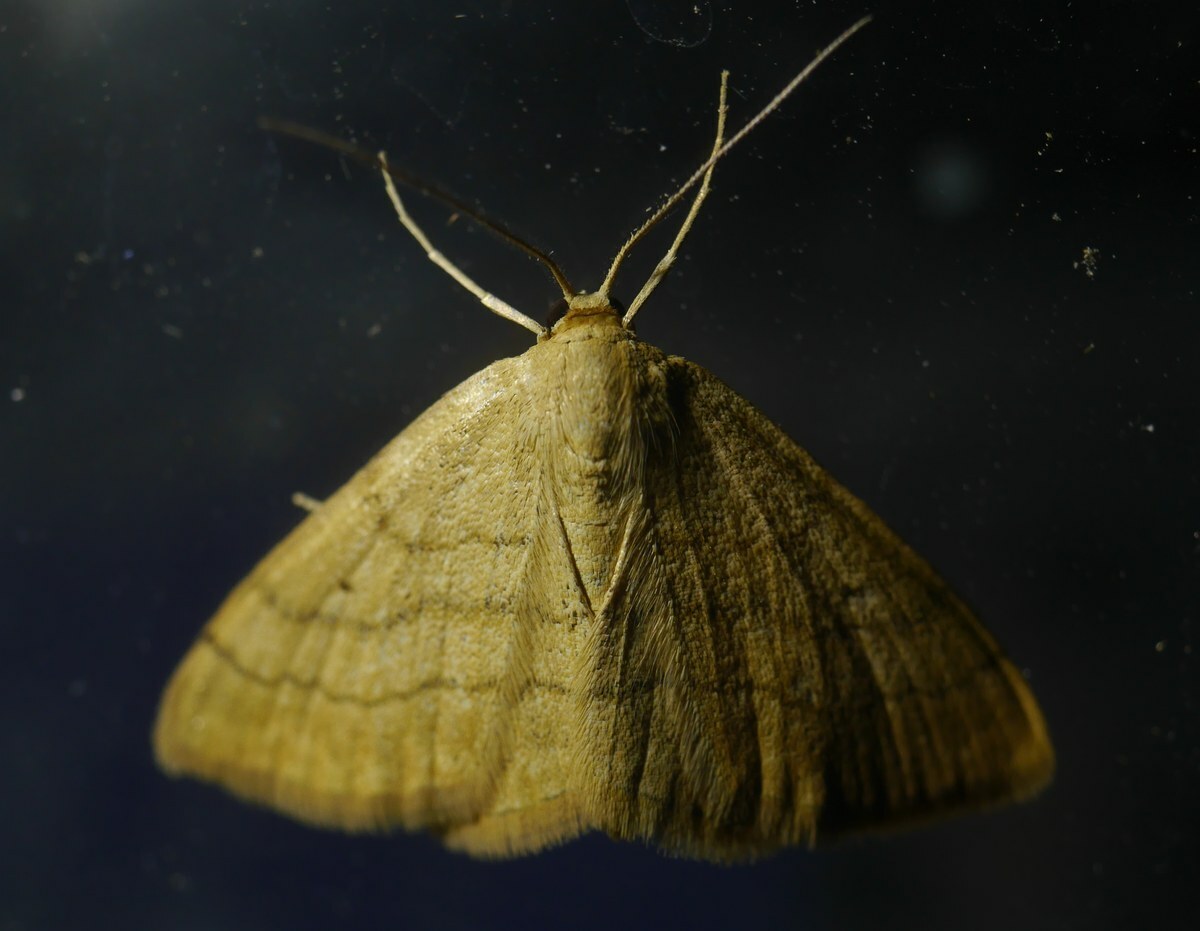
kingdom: Animalia
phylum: Arthropoda
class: Insecta
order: Lepidoptera
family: Geometridae
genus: Scopula
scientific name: Scopula rubiginata
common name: Tawny wave
